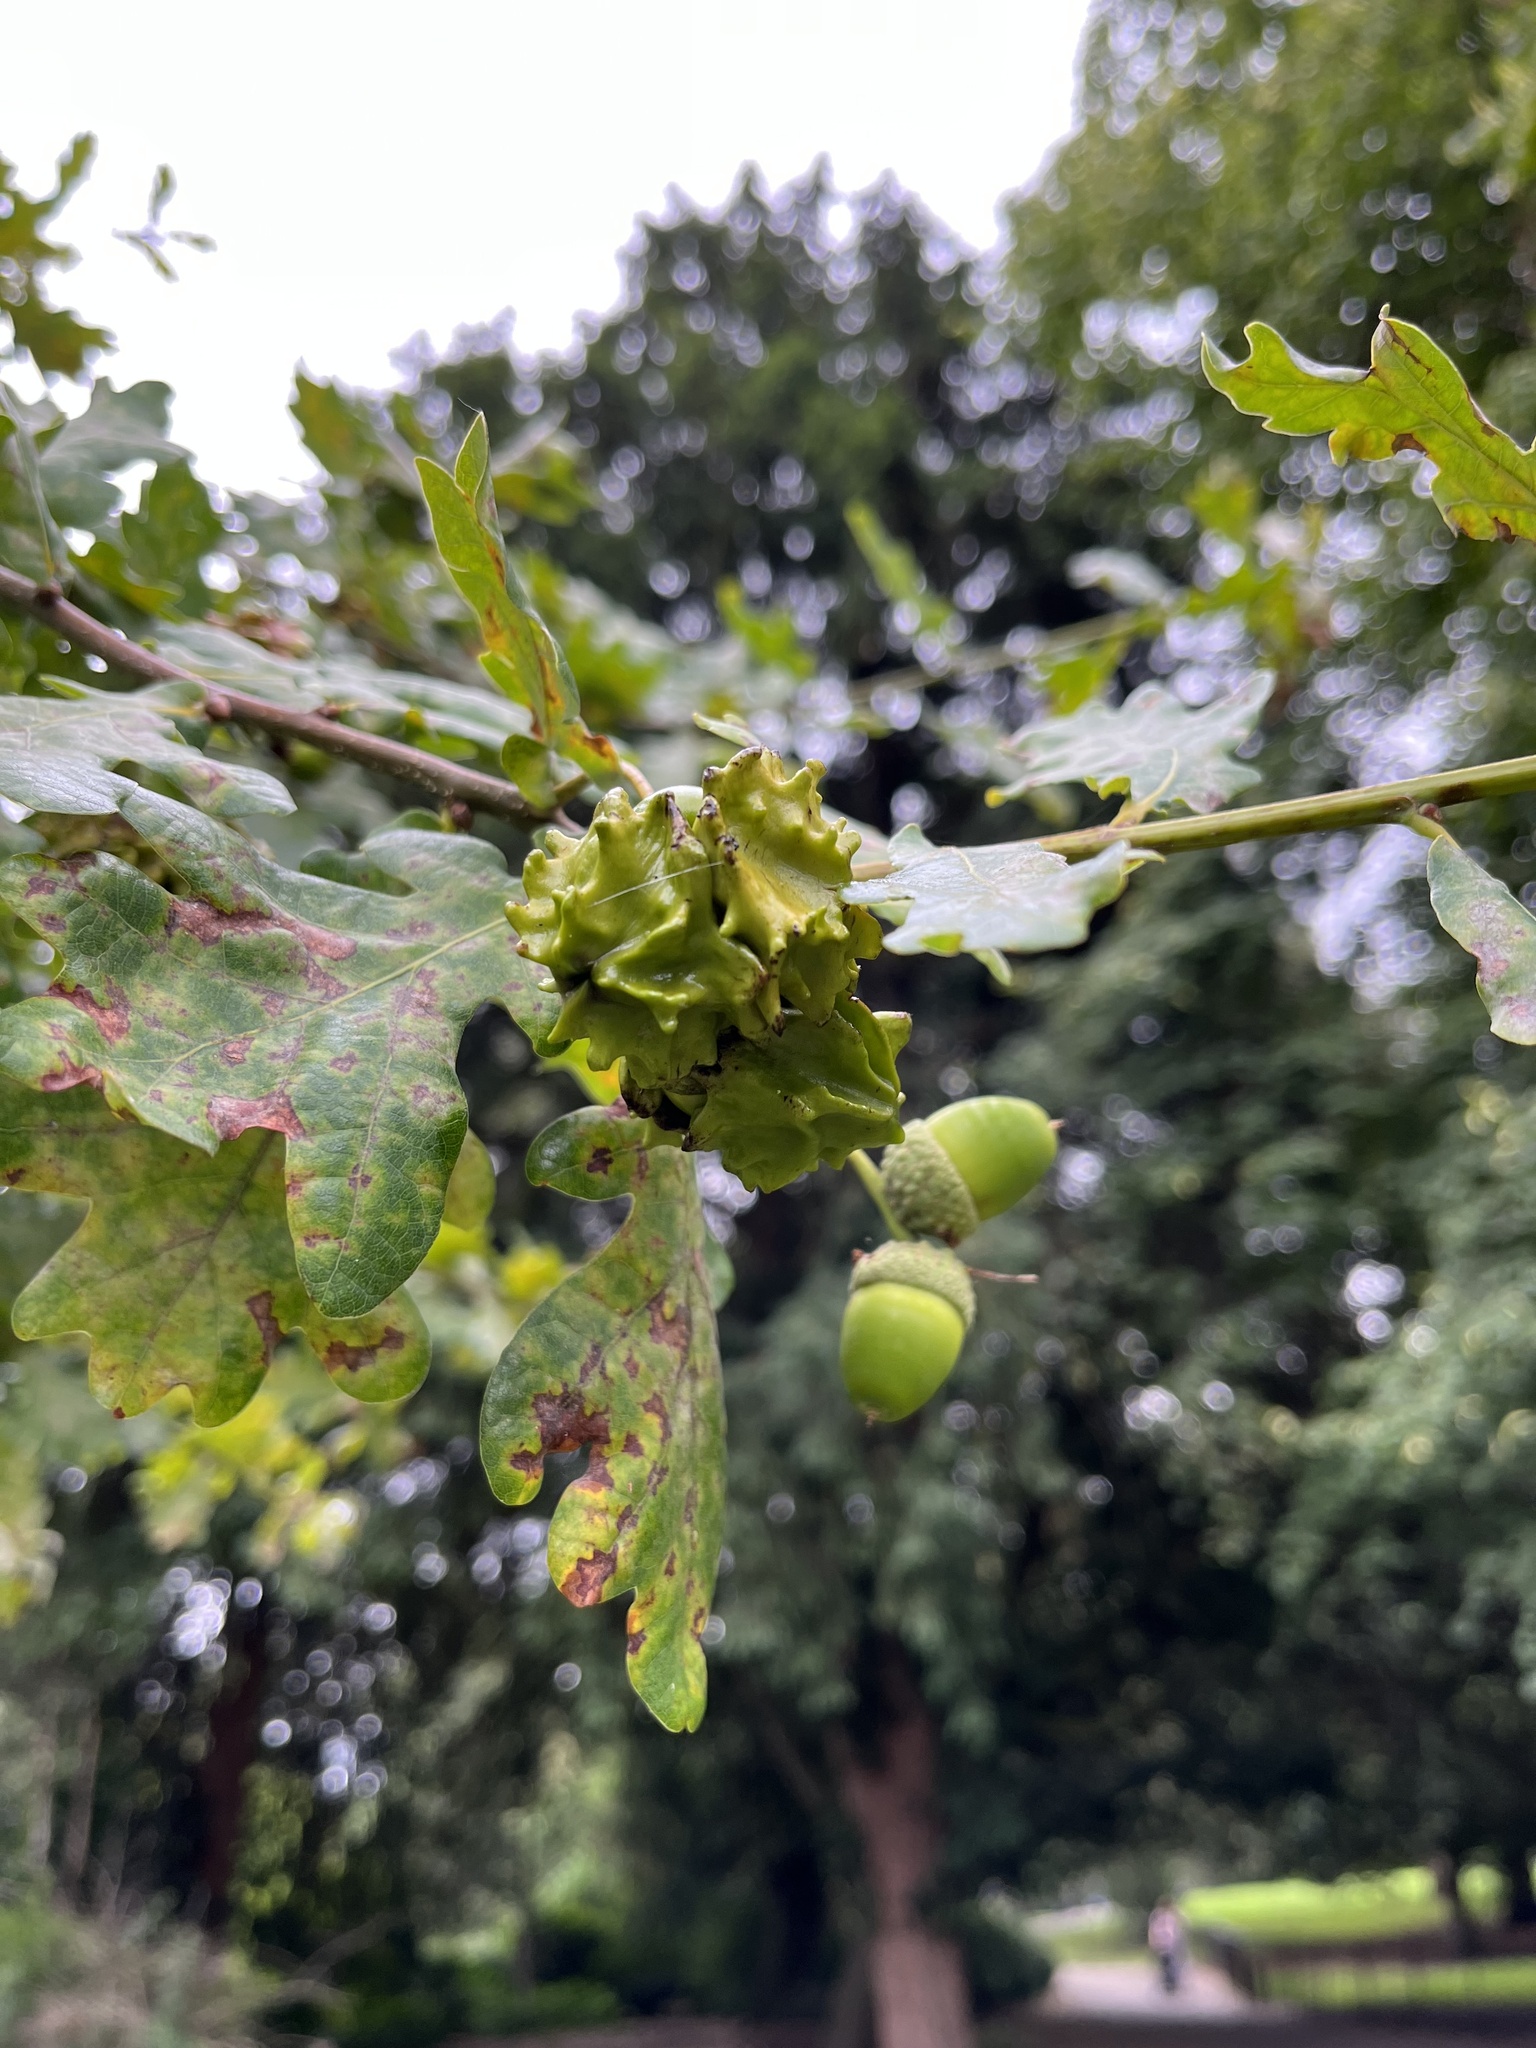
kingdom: Animalia
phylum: Arthropoda
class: Insecta
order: Hymenoptera
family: Cynipidae
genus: Andricus
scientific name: Andricus quercuscalicis
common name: Knopper gall
